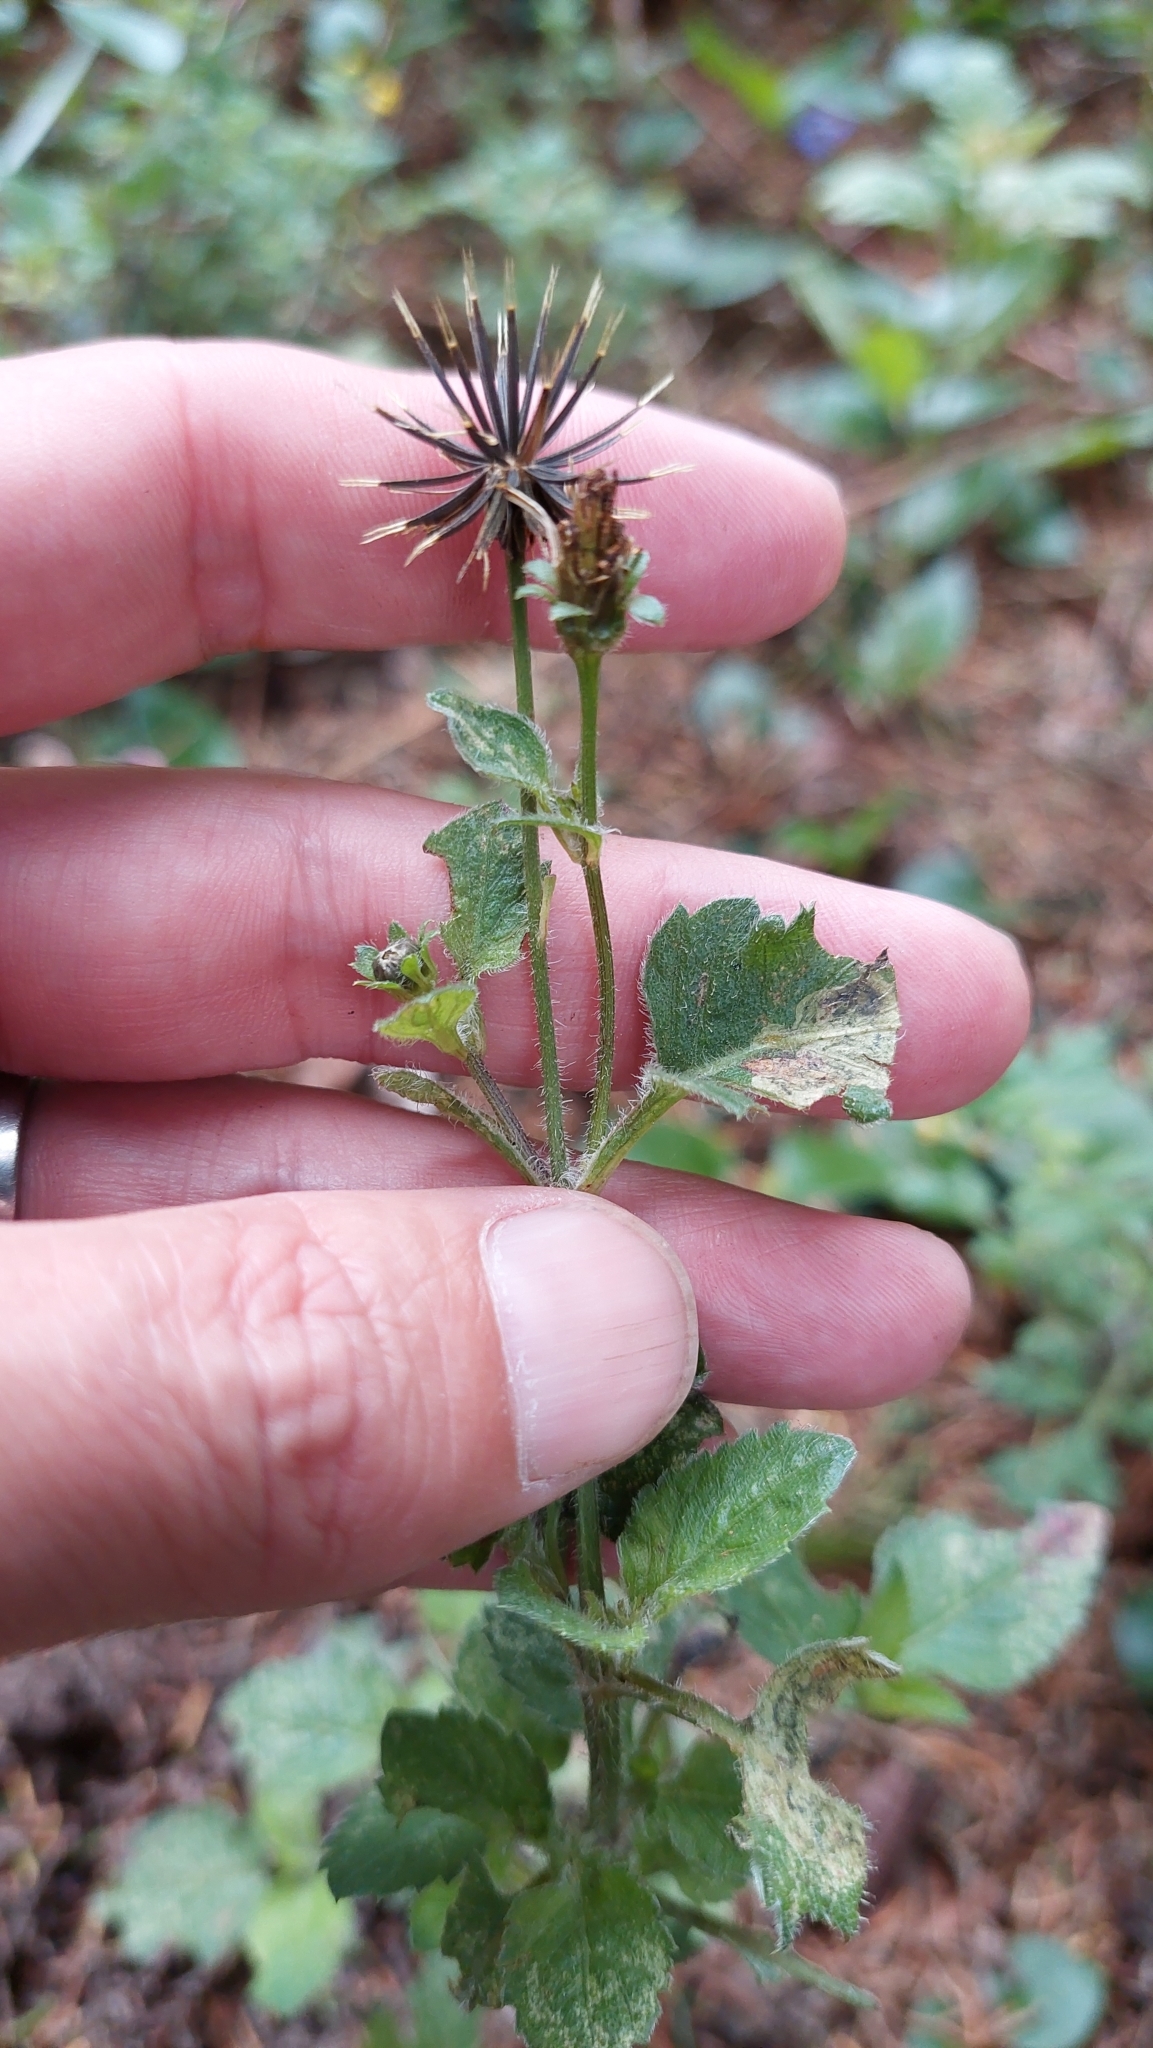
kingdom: Plantae
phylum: Tracheophyta
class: Magnoliopsida
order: Asterales
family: Asteraceae
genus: Bidens
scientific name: Bidens pilosa
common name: Black-jack
